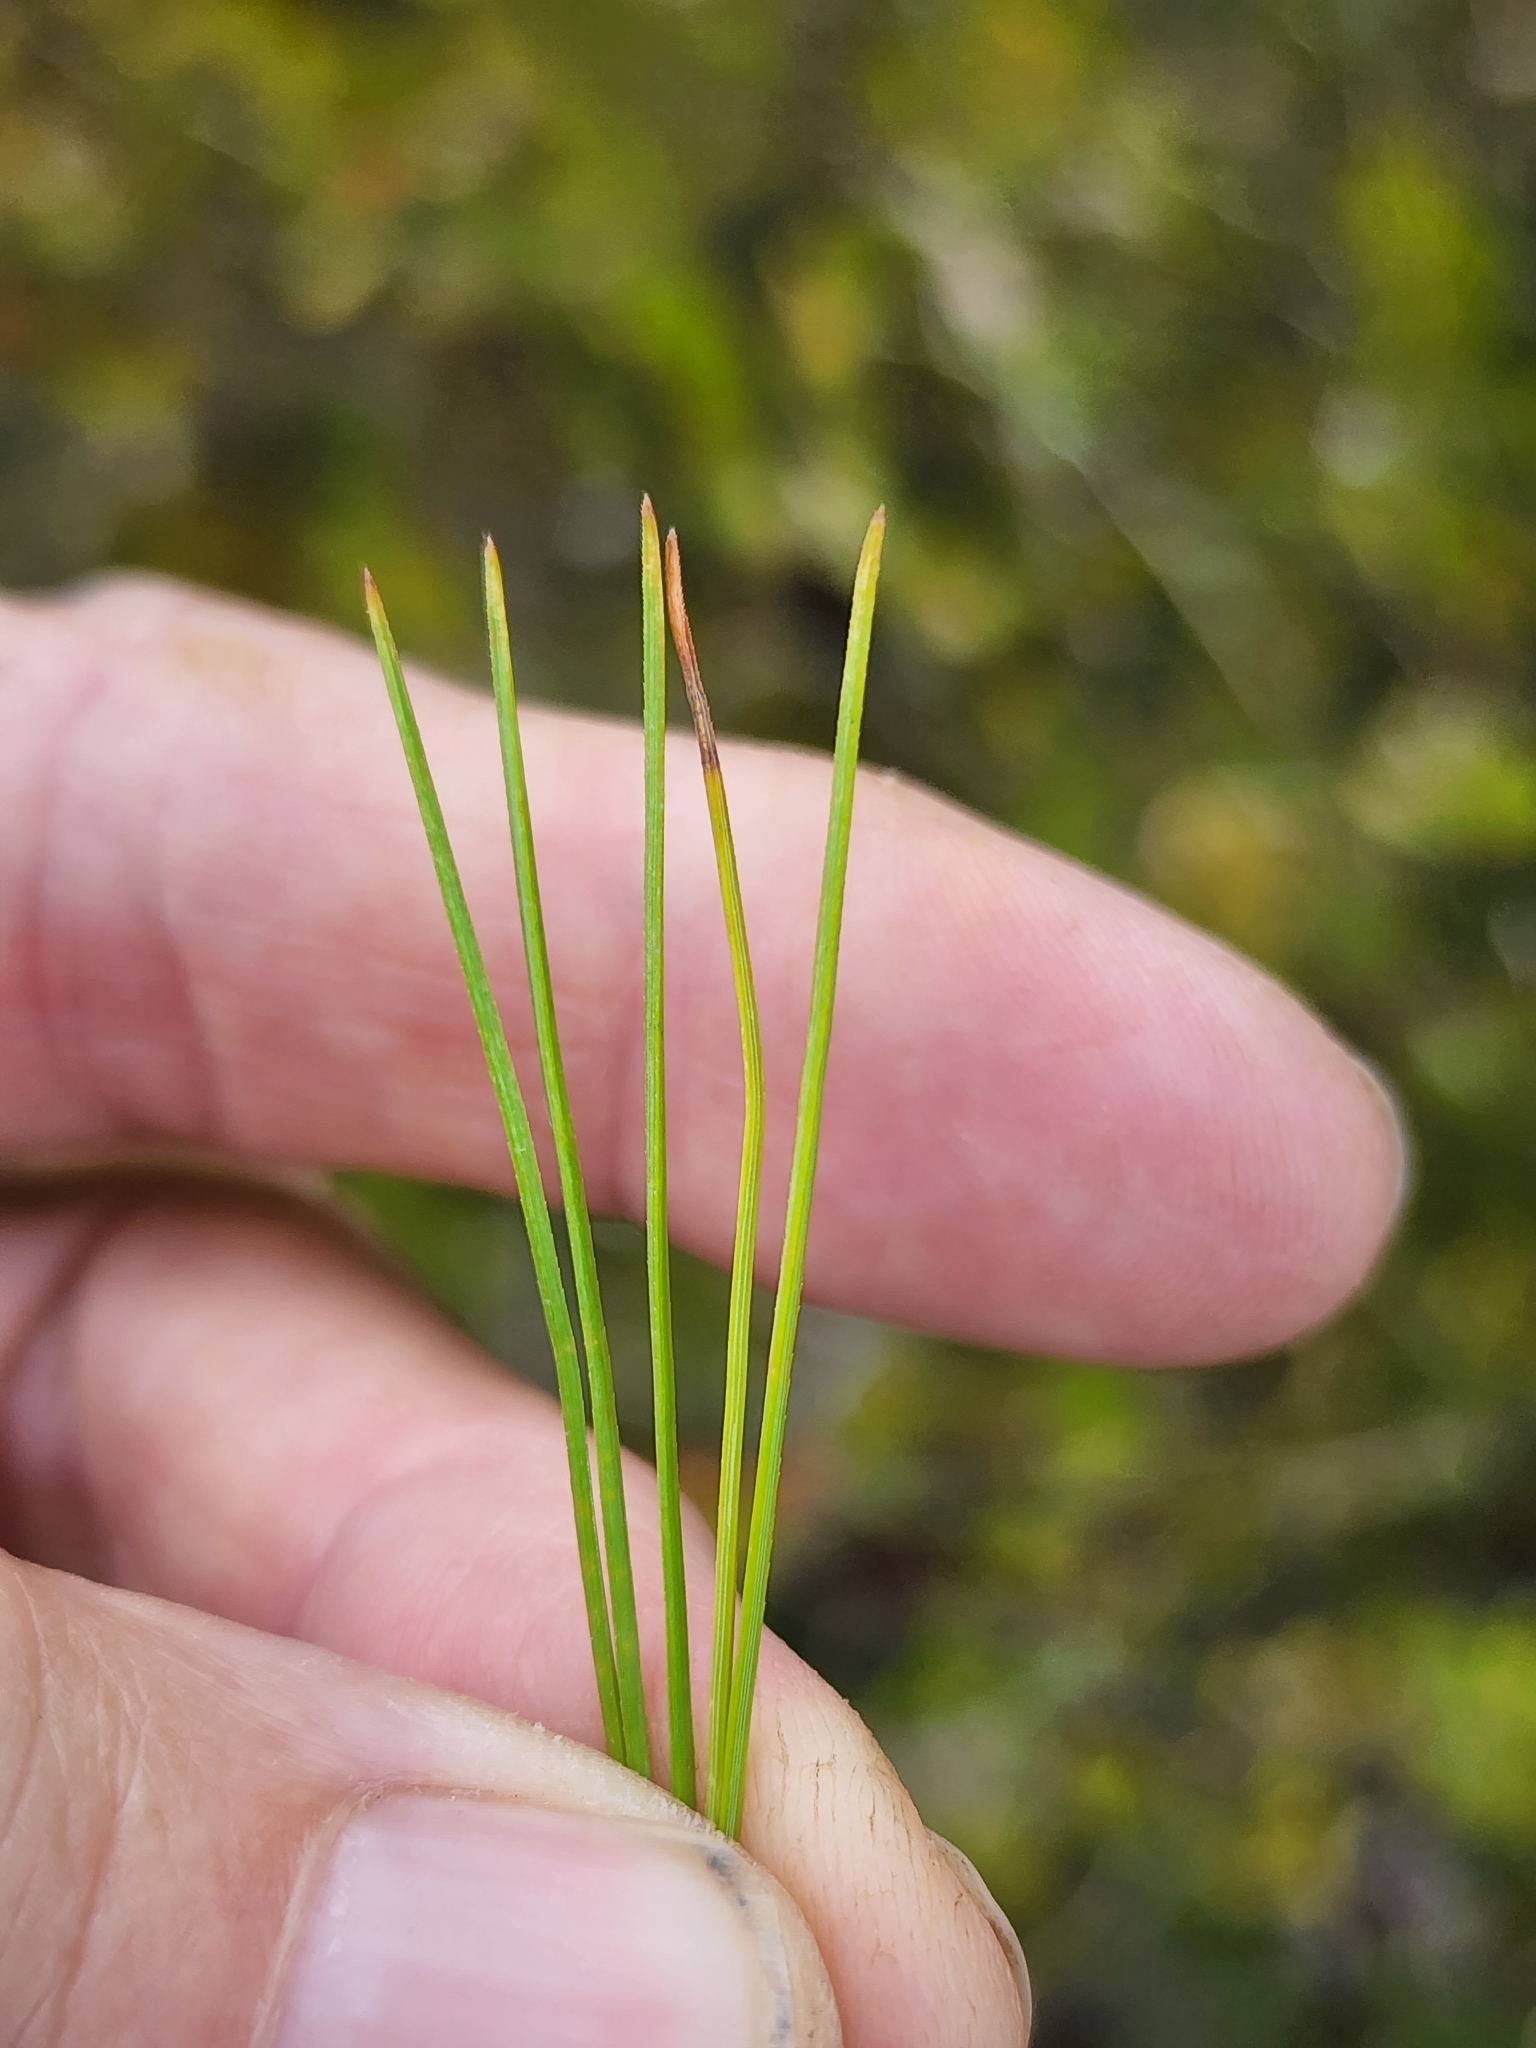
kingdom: Plantae
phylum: Tracheophyta
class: Pinopsida
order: Pinales
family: Pinaceae
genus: Pinus
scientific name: Pinus strobus
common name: Weymouth pine
